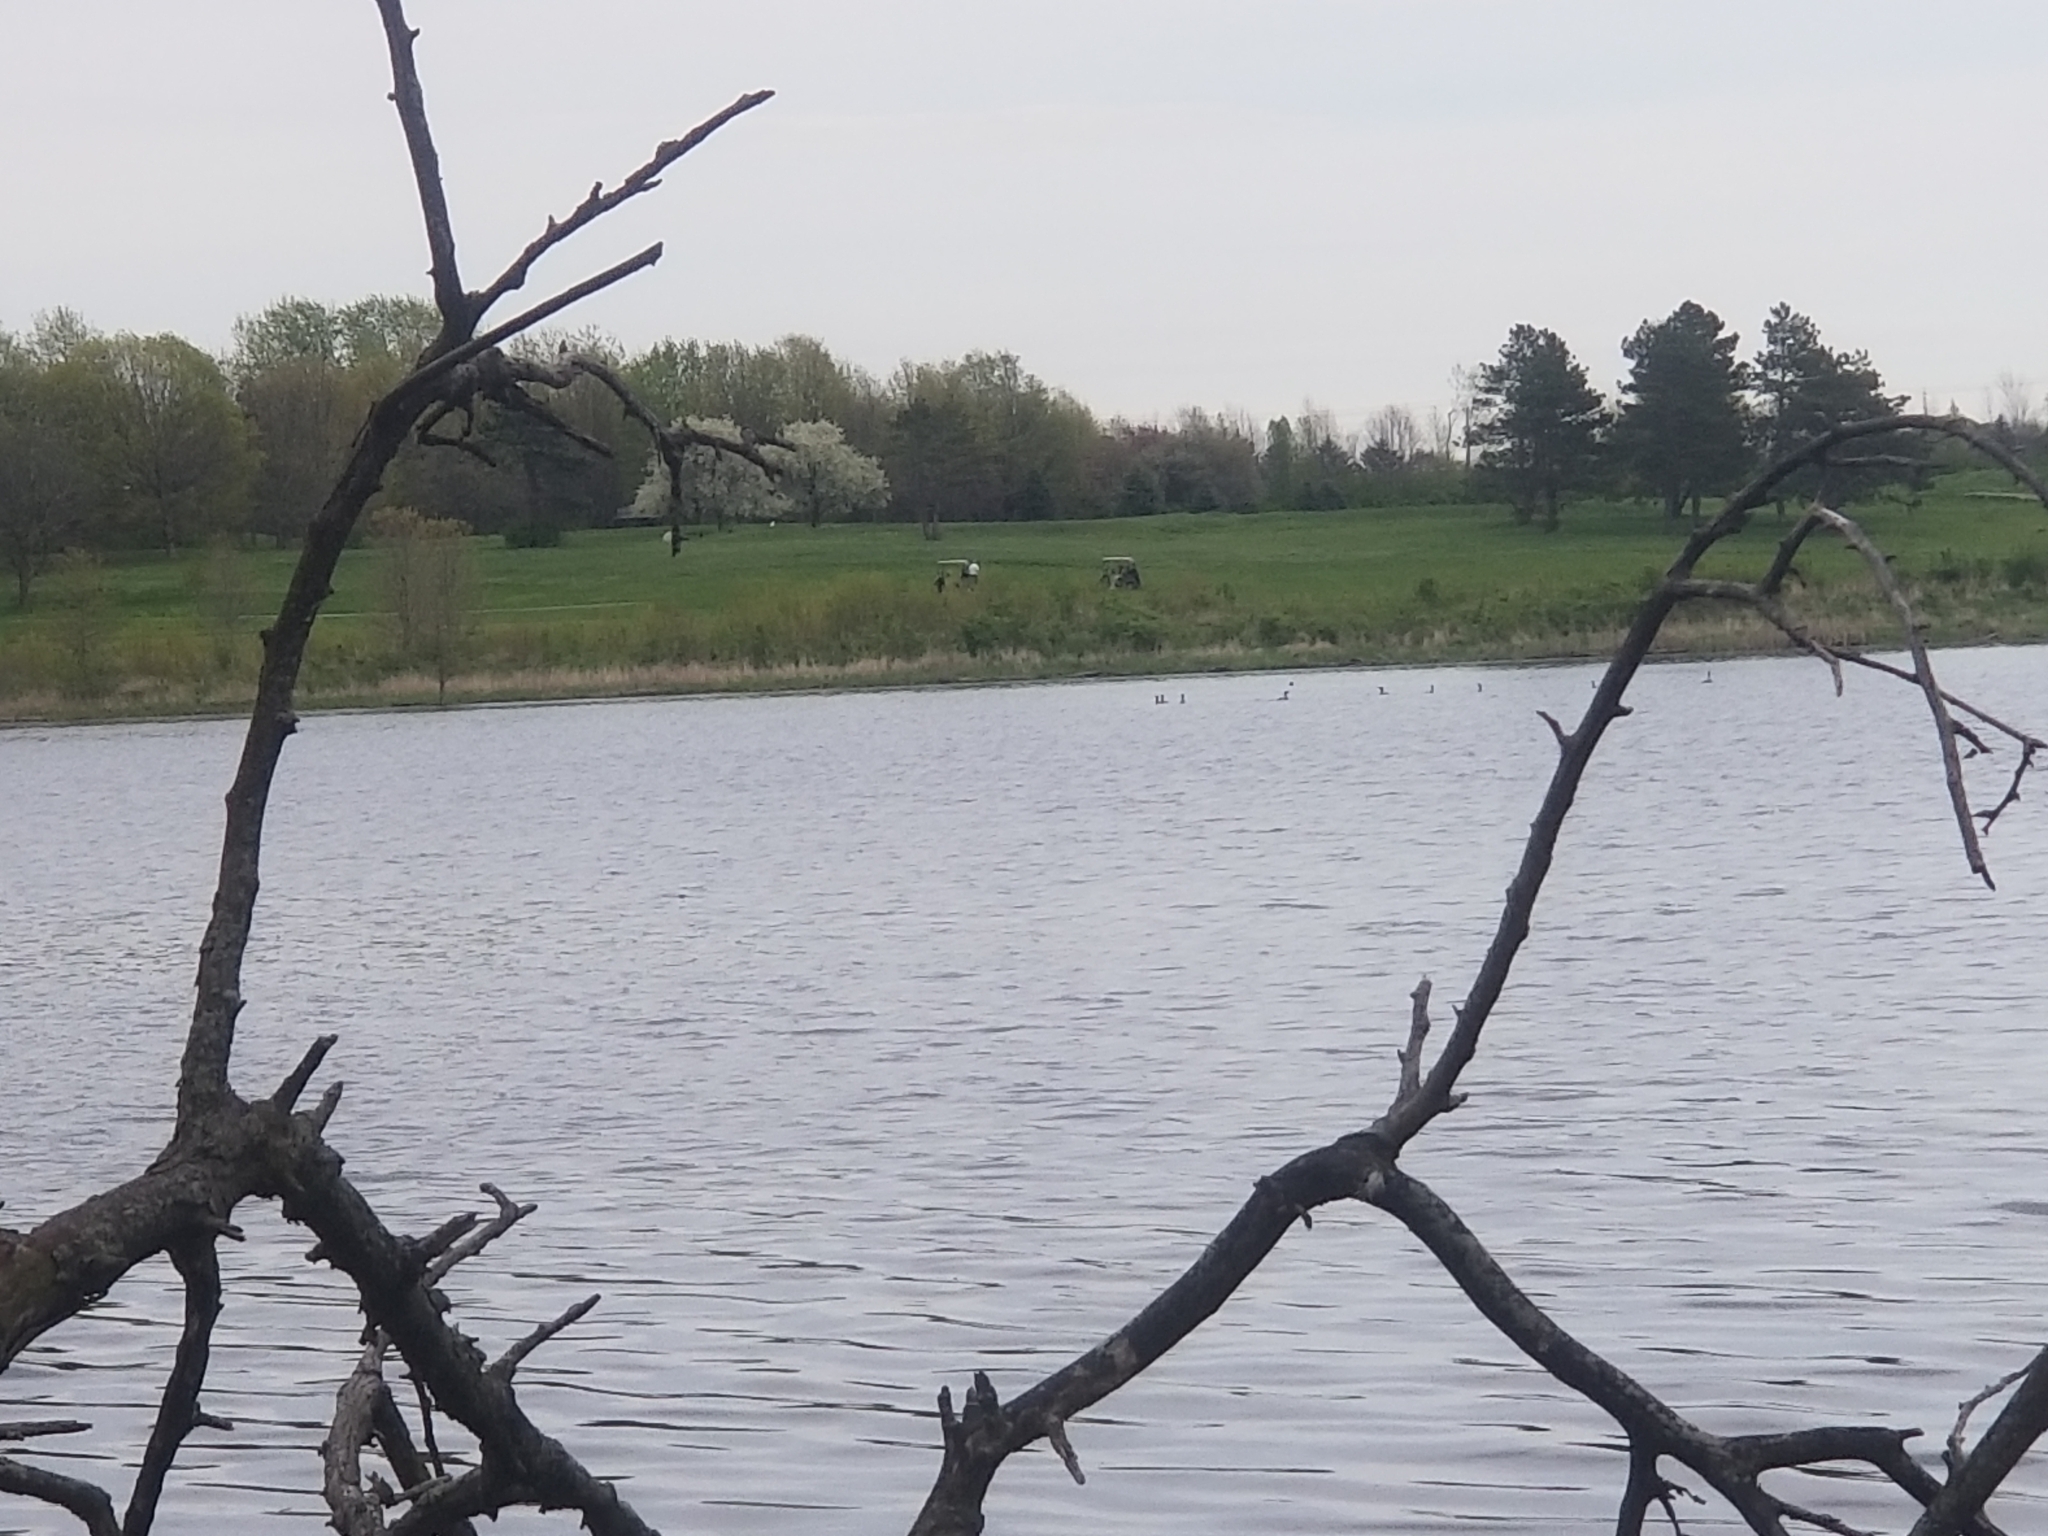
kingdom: Animalia
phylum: Chordata
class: Aves
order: Suliformes
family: Phalacrocoracidae
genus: Phalacrocorax
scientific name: Phalacrocorax auritus
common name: Double-crested cormorant
